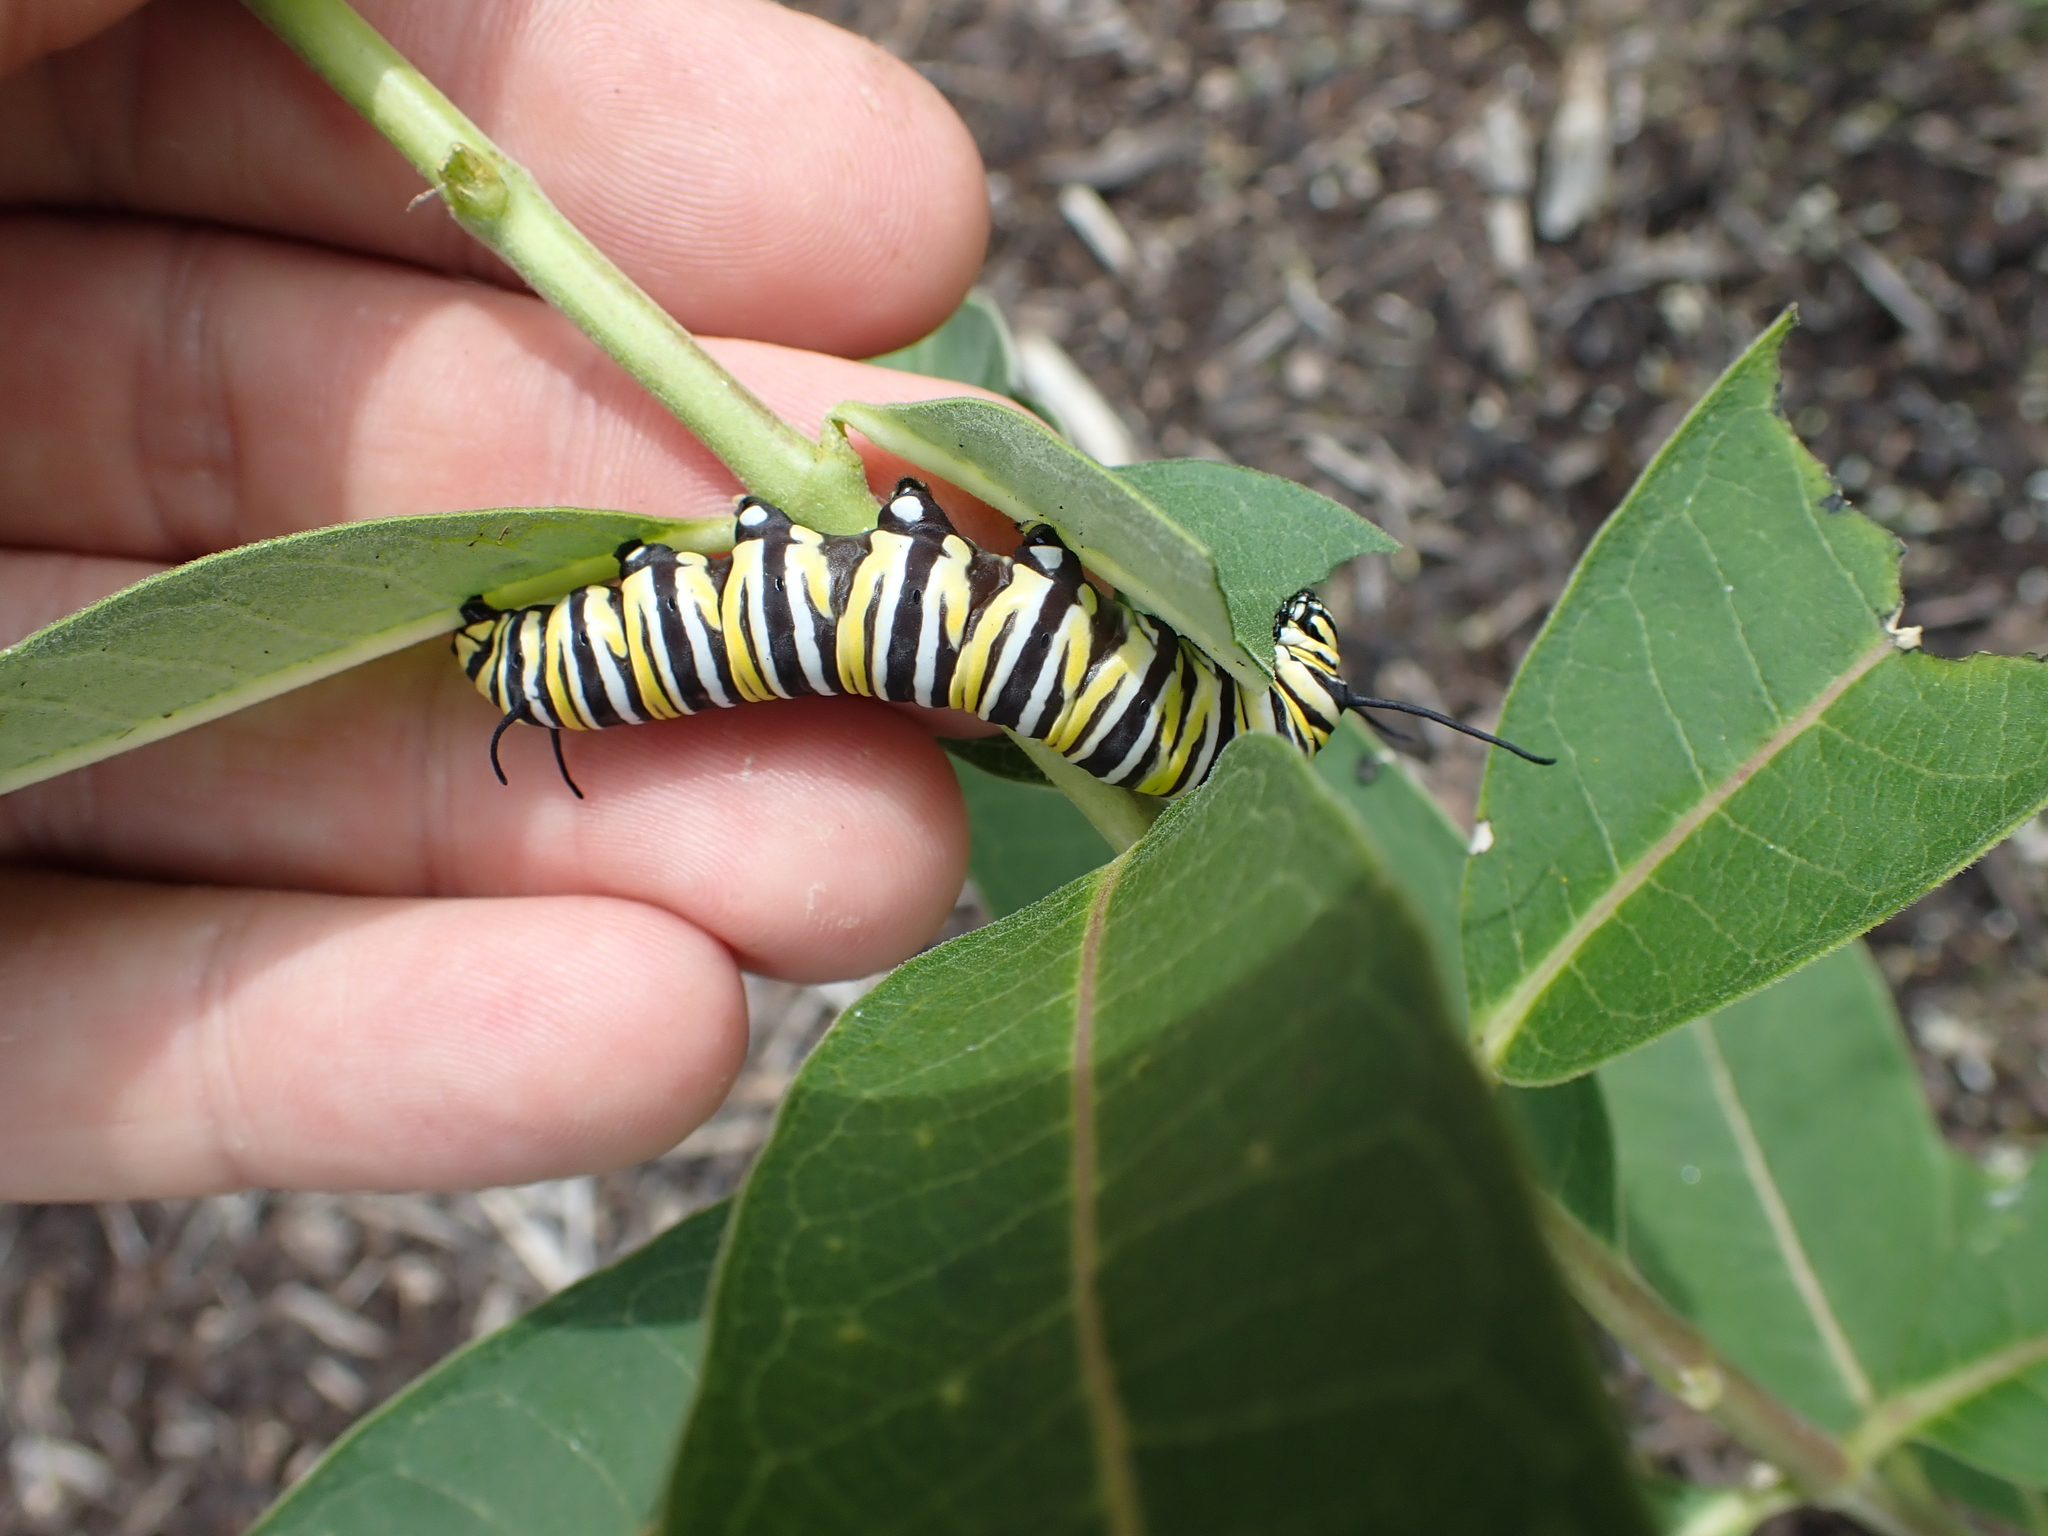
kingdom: Animalia
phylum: Arthropoda
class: Insecta
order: Lepidoptera
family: Nymphalidae
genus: Danaus
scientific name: Danaus plexippus
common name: Monarch
